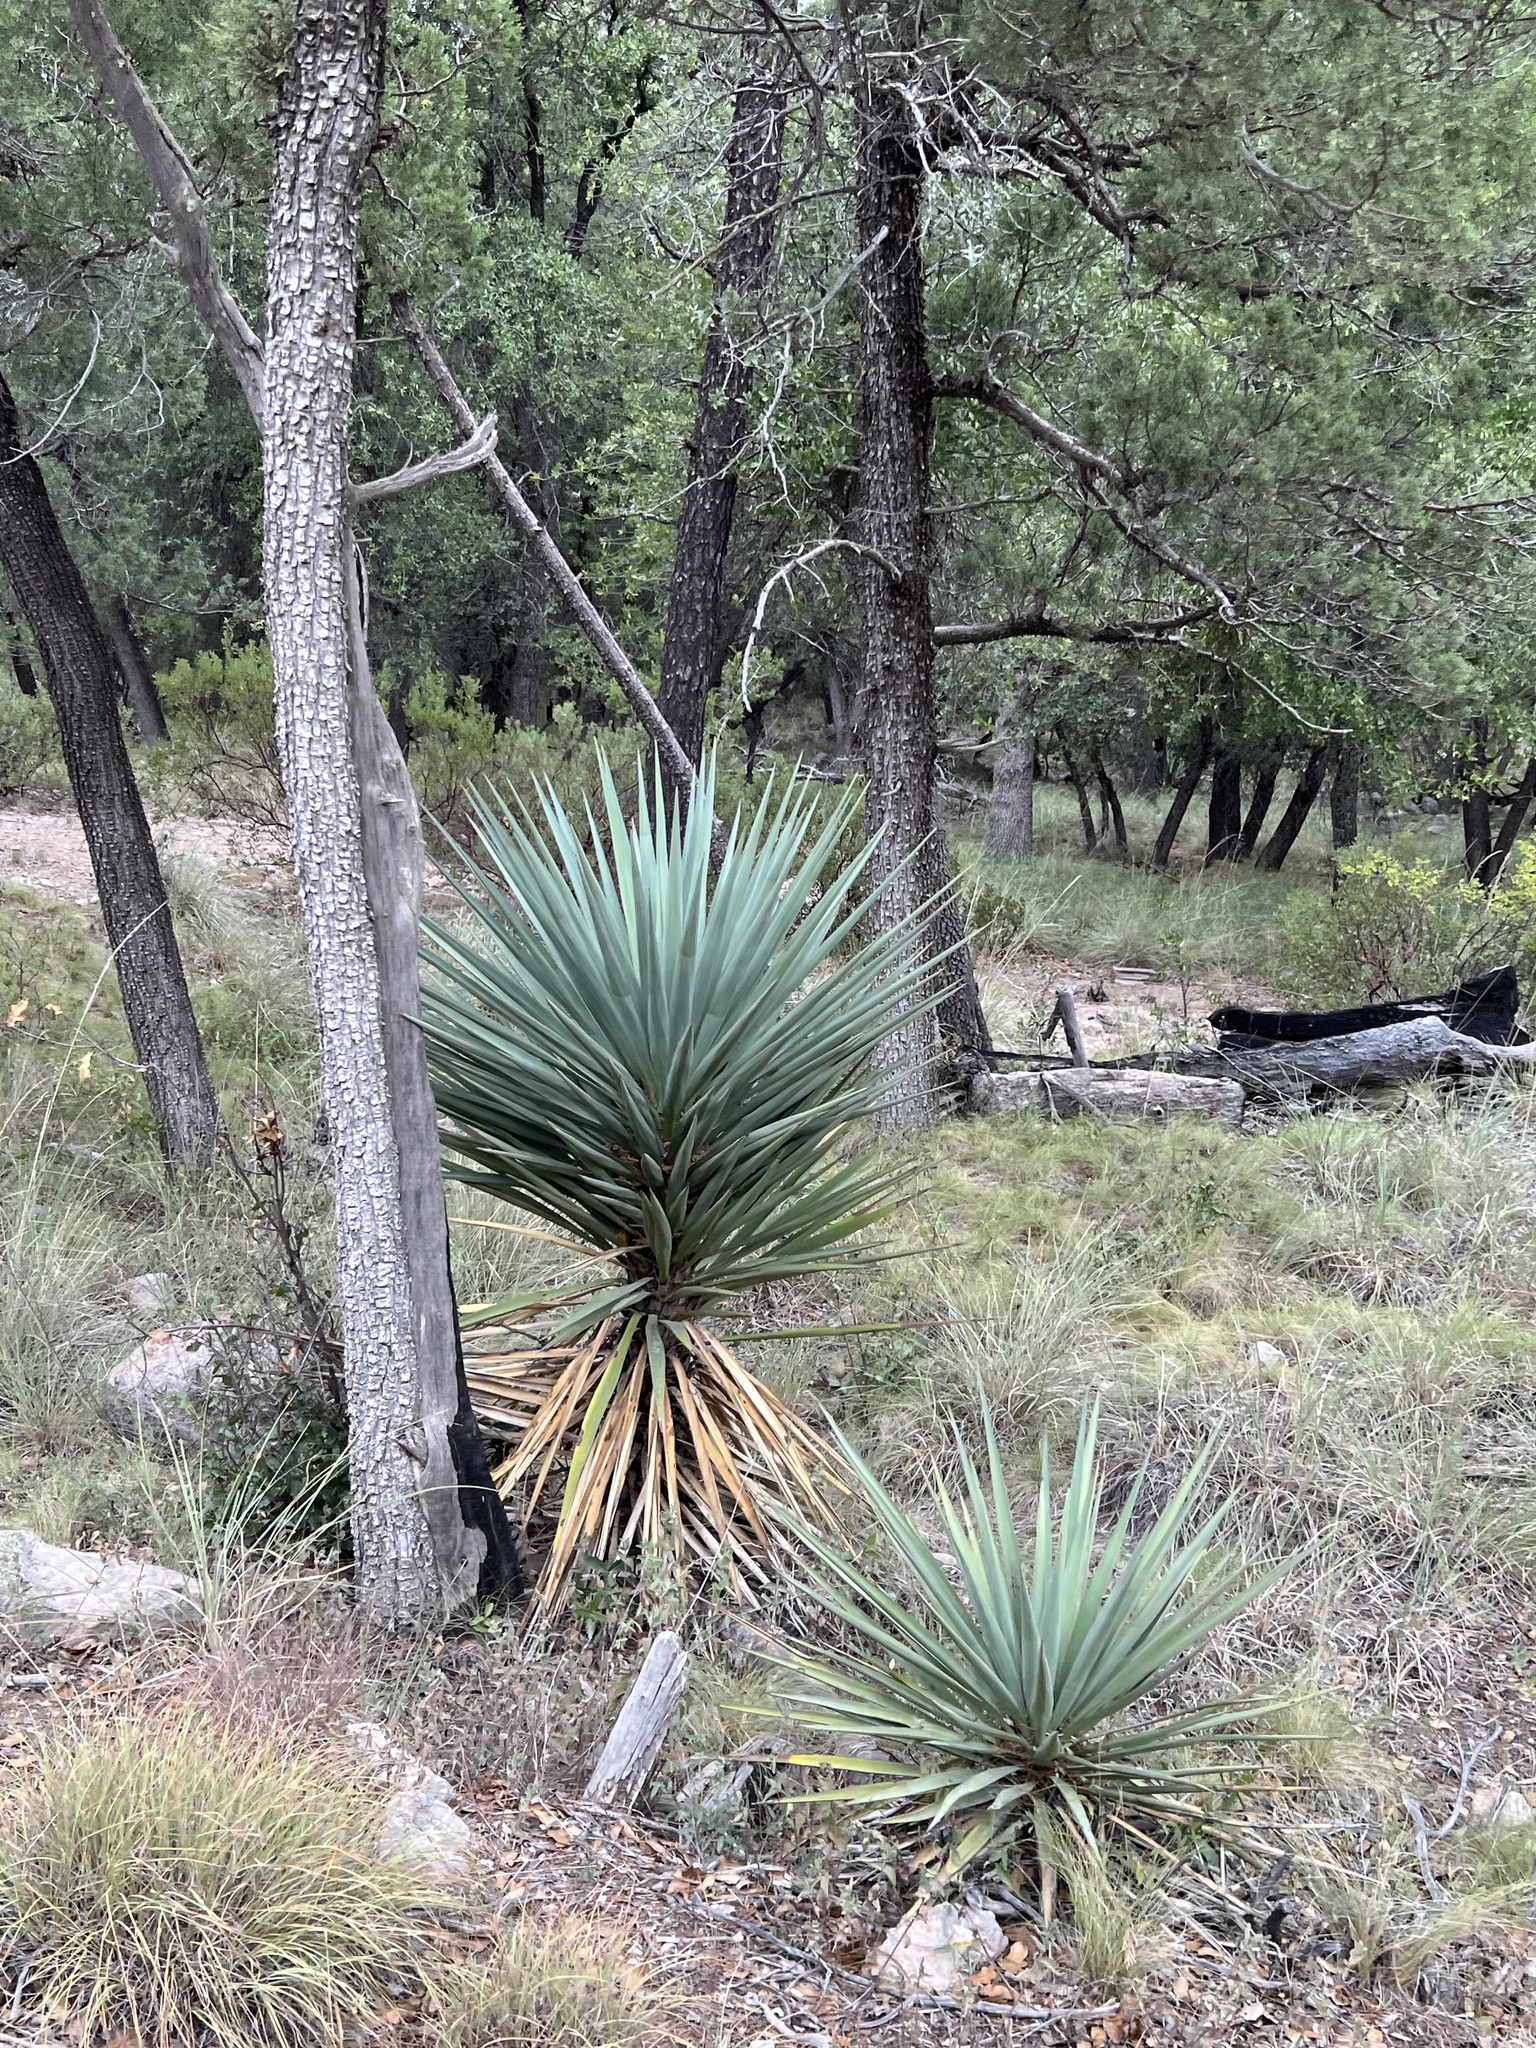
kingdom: Plantae
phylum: Tracheophyta
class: Liliopsida
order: Asparagales
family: Asparagaceae
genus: Yucca
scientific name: Yucca schottii
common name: Hoary yucca
